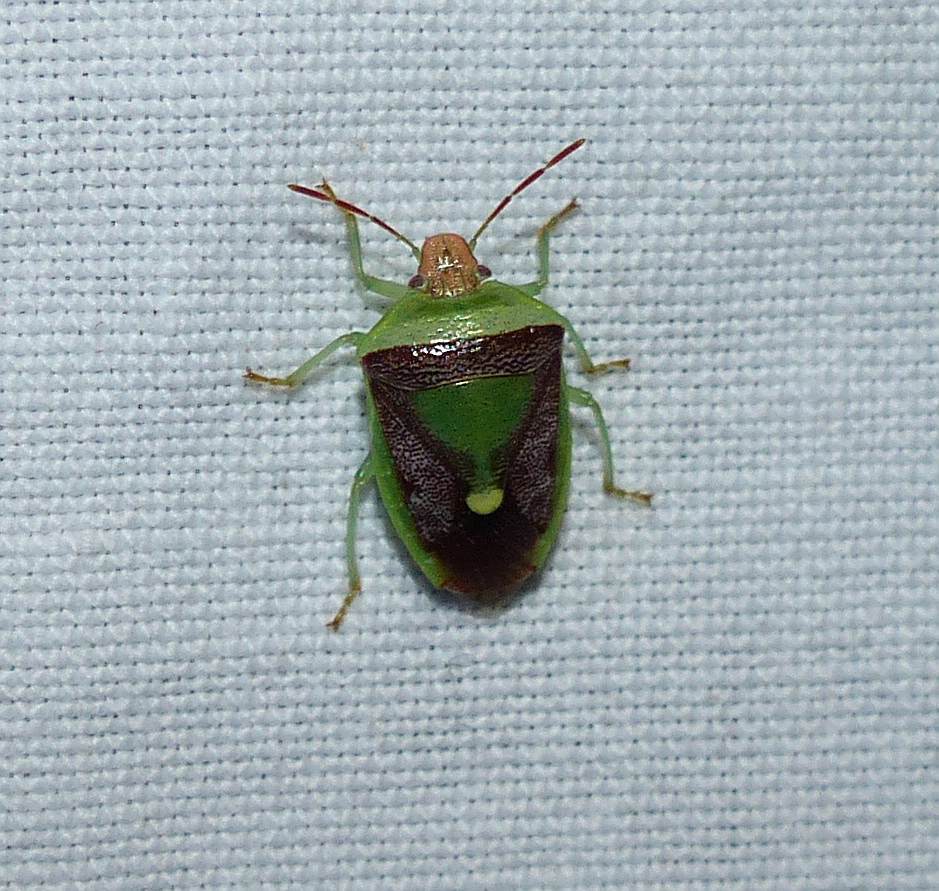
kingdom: Animalia
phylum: Arthropoda
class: Insecta
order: Hemiptera
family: Pentatomidae
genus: Banasa
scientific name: Banasa dimidiata
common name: Green burgundy stink bug
